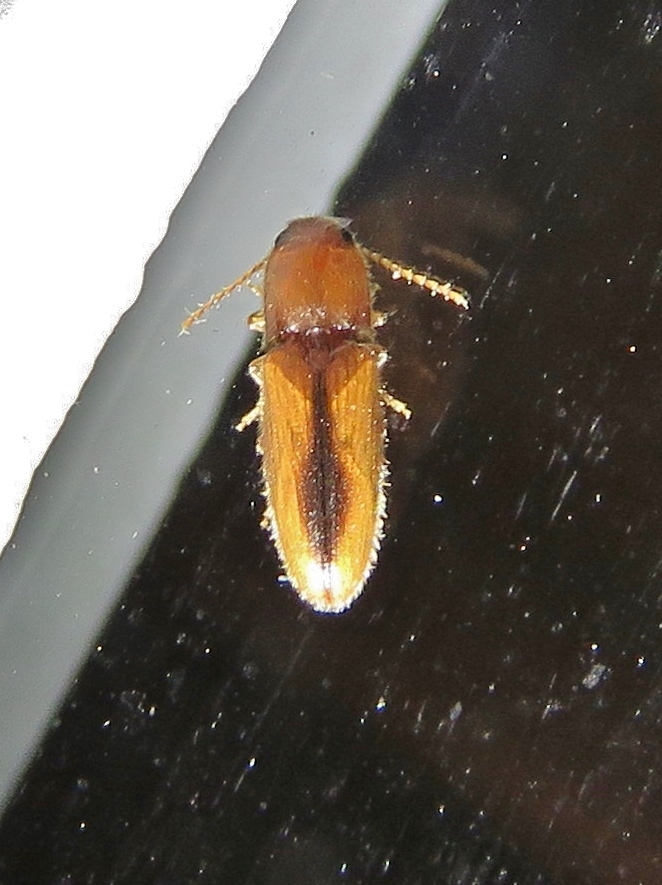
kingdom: Animalia
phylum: Arthropoda
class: Insecta
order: Coleoptera
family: Elateridae
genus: Glyphonyx
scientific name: Glyphonyx
